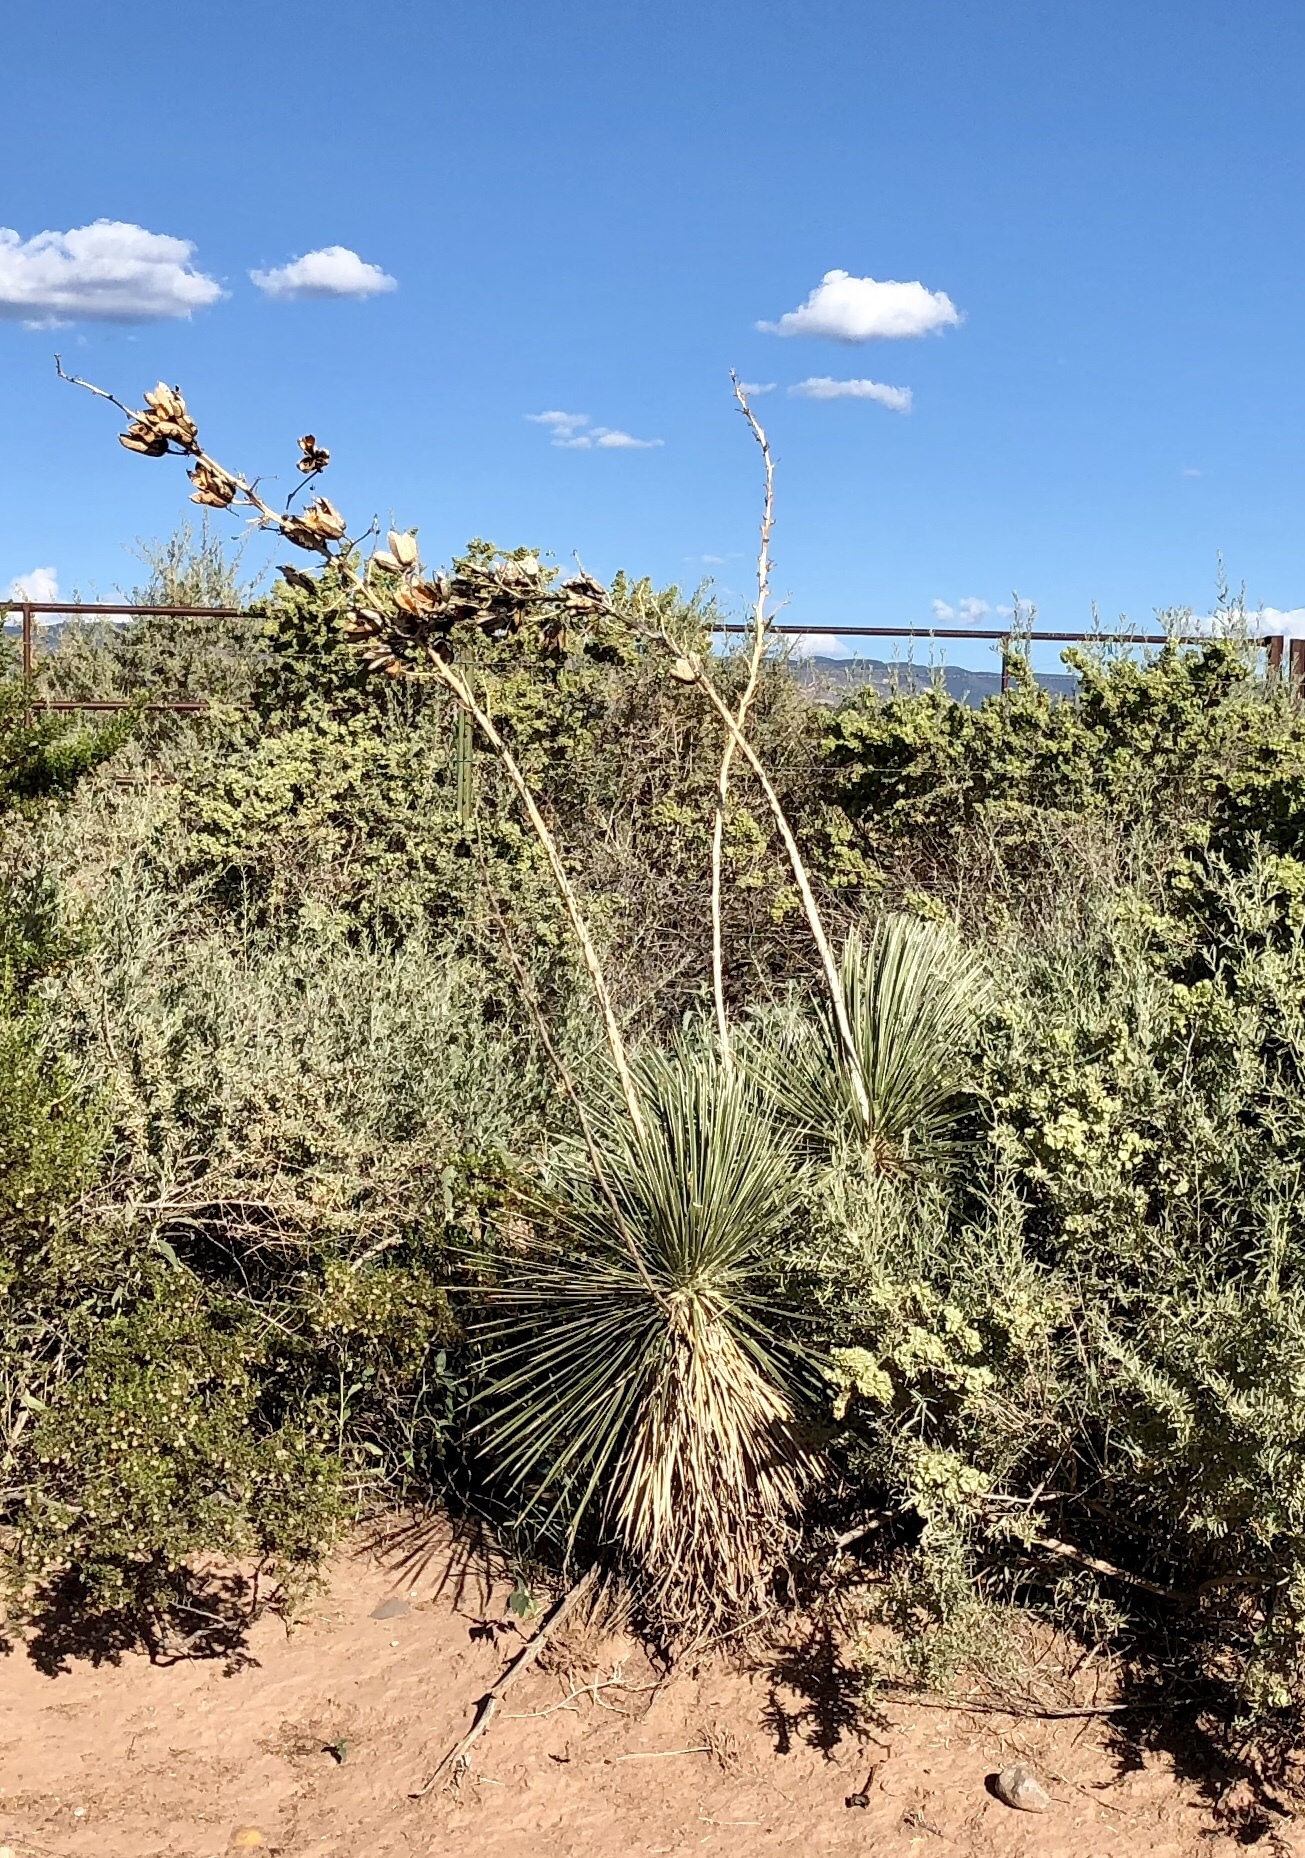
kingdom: Plantae
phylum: Tracheophyta
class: Liliopsida
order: Asparagales
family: Asparagaceae
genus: Yucca
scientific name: Yucca elata
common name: Palmella
